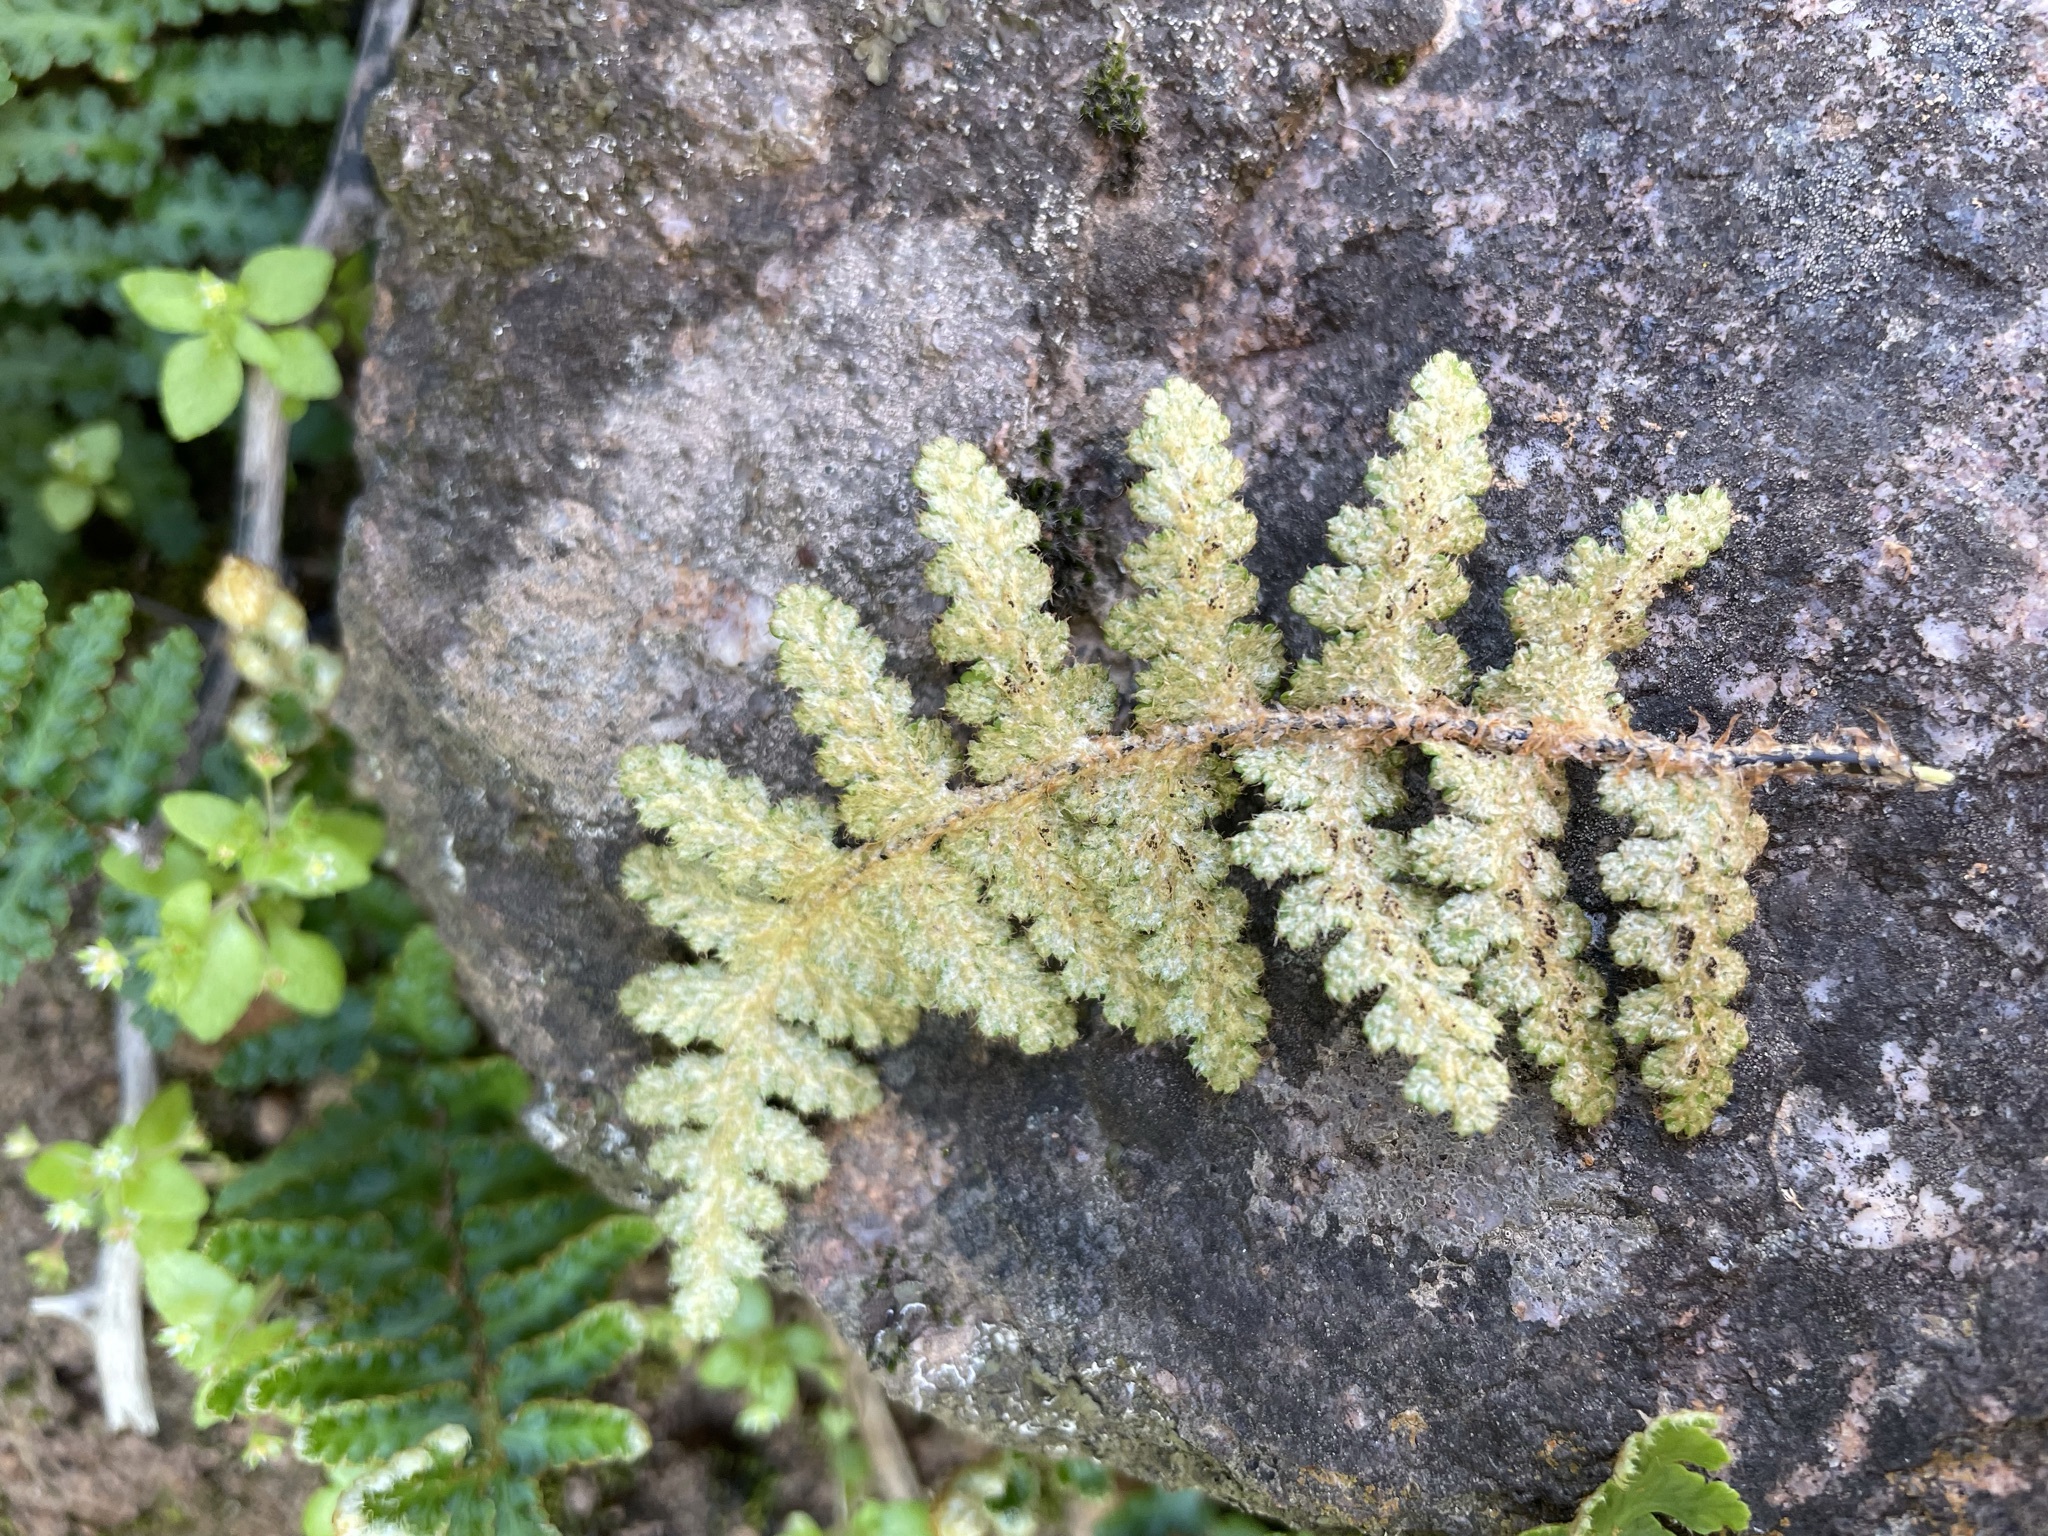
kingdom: Plantae
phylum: Tracheophyta
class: Polypodiopsida
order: Polypodiales
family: Aspleniaceae
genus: Asplenium
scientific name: Asplenium cordatum
